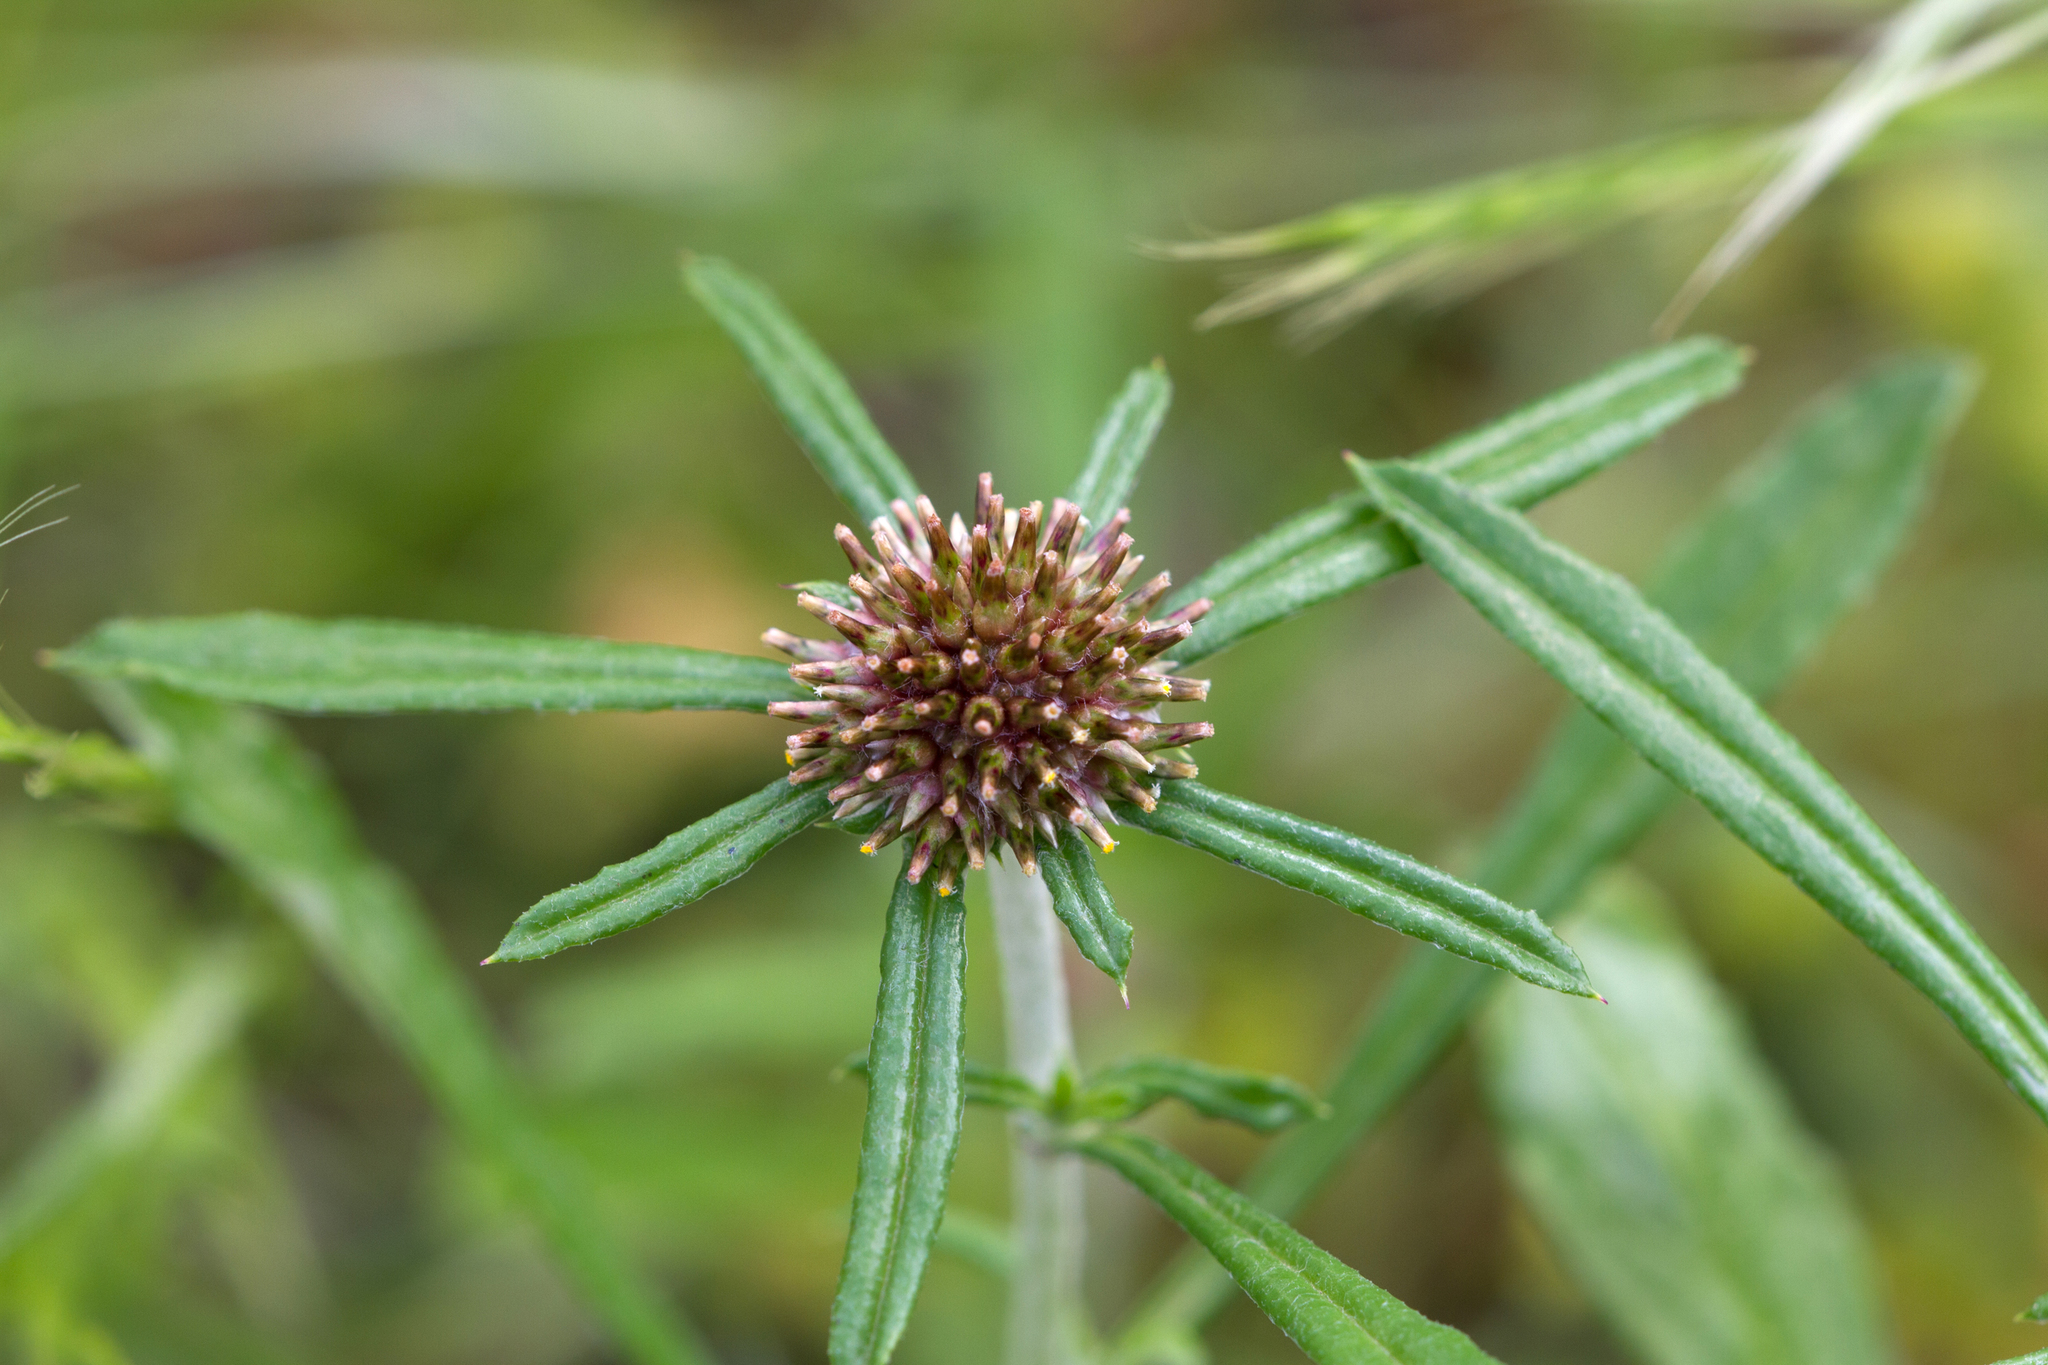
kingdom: Plantae
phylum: Tracheophyta
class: Magnoliopsida
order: Asterales
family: Asteraceae
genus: Euchiton
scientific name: Euchiton sphaericus
